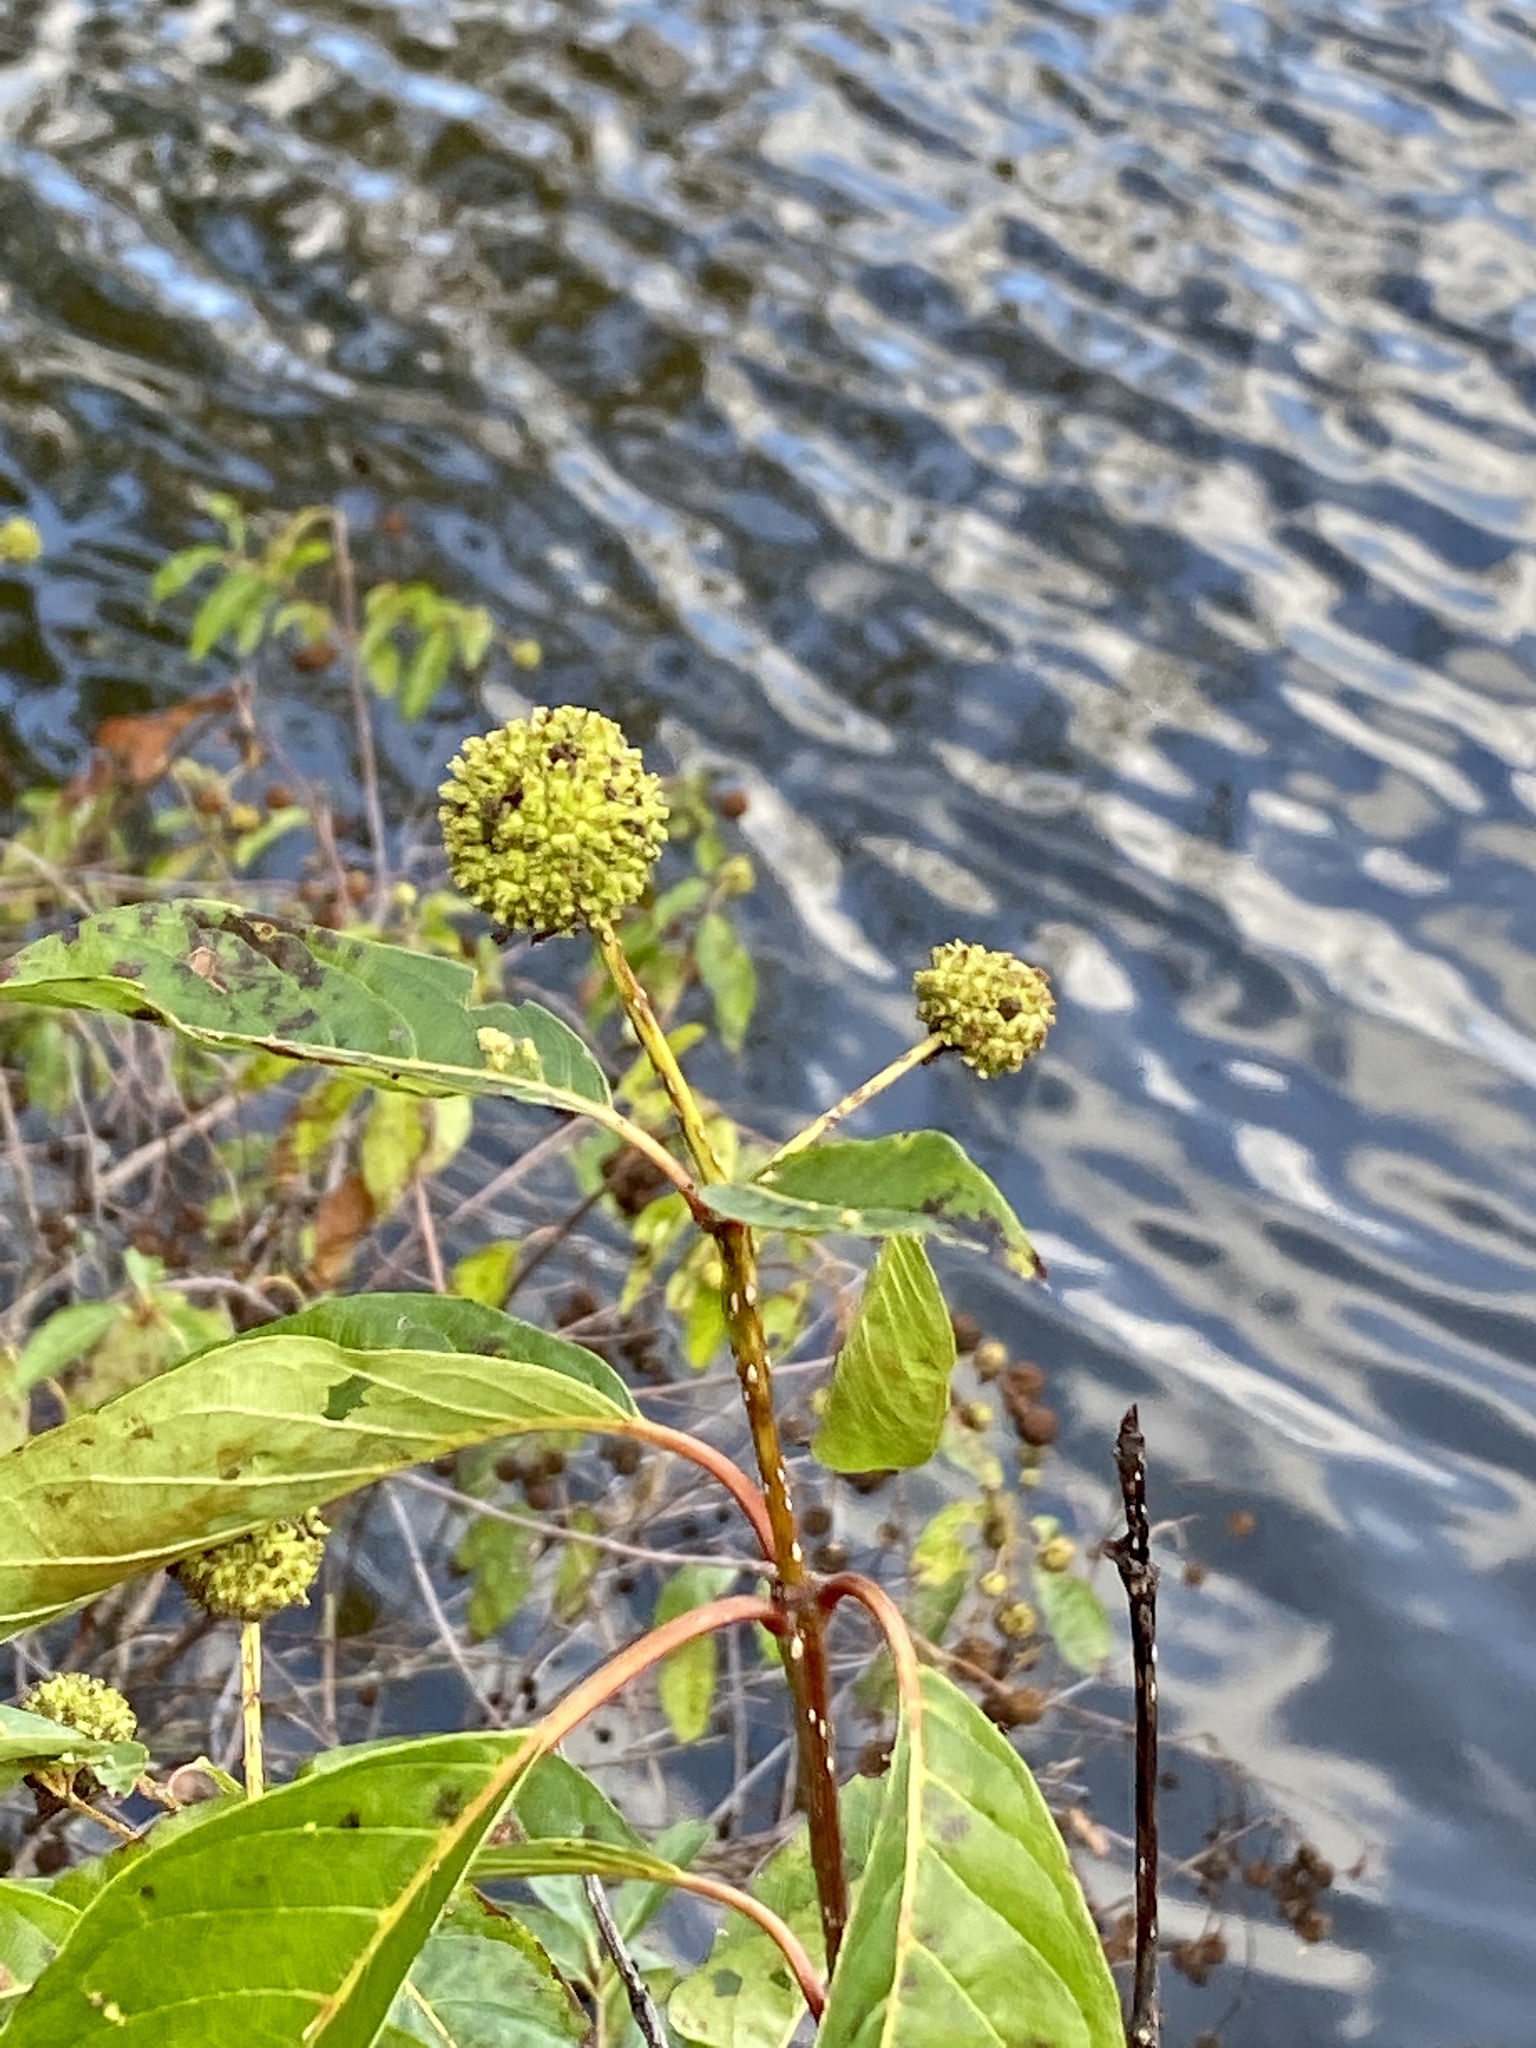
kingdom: Plantae
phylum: Tracheophyta
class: Magnoliopsida
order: Gentianales
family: Rubiaceae
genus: Cephalanthus
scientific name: Cephalanthus occidentalis
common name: Button-willow
